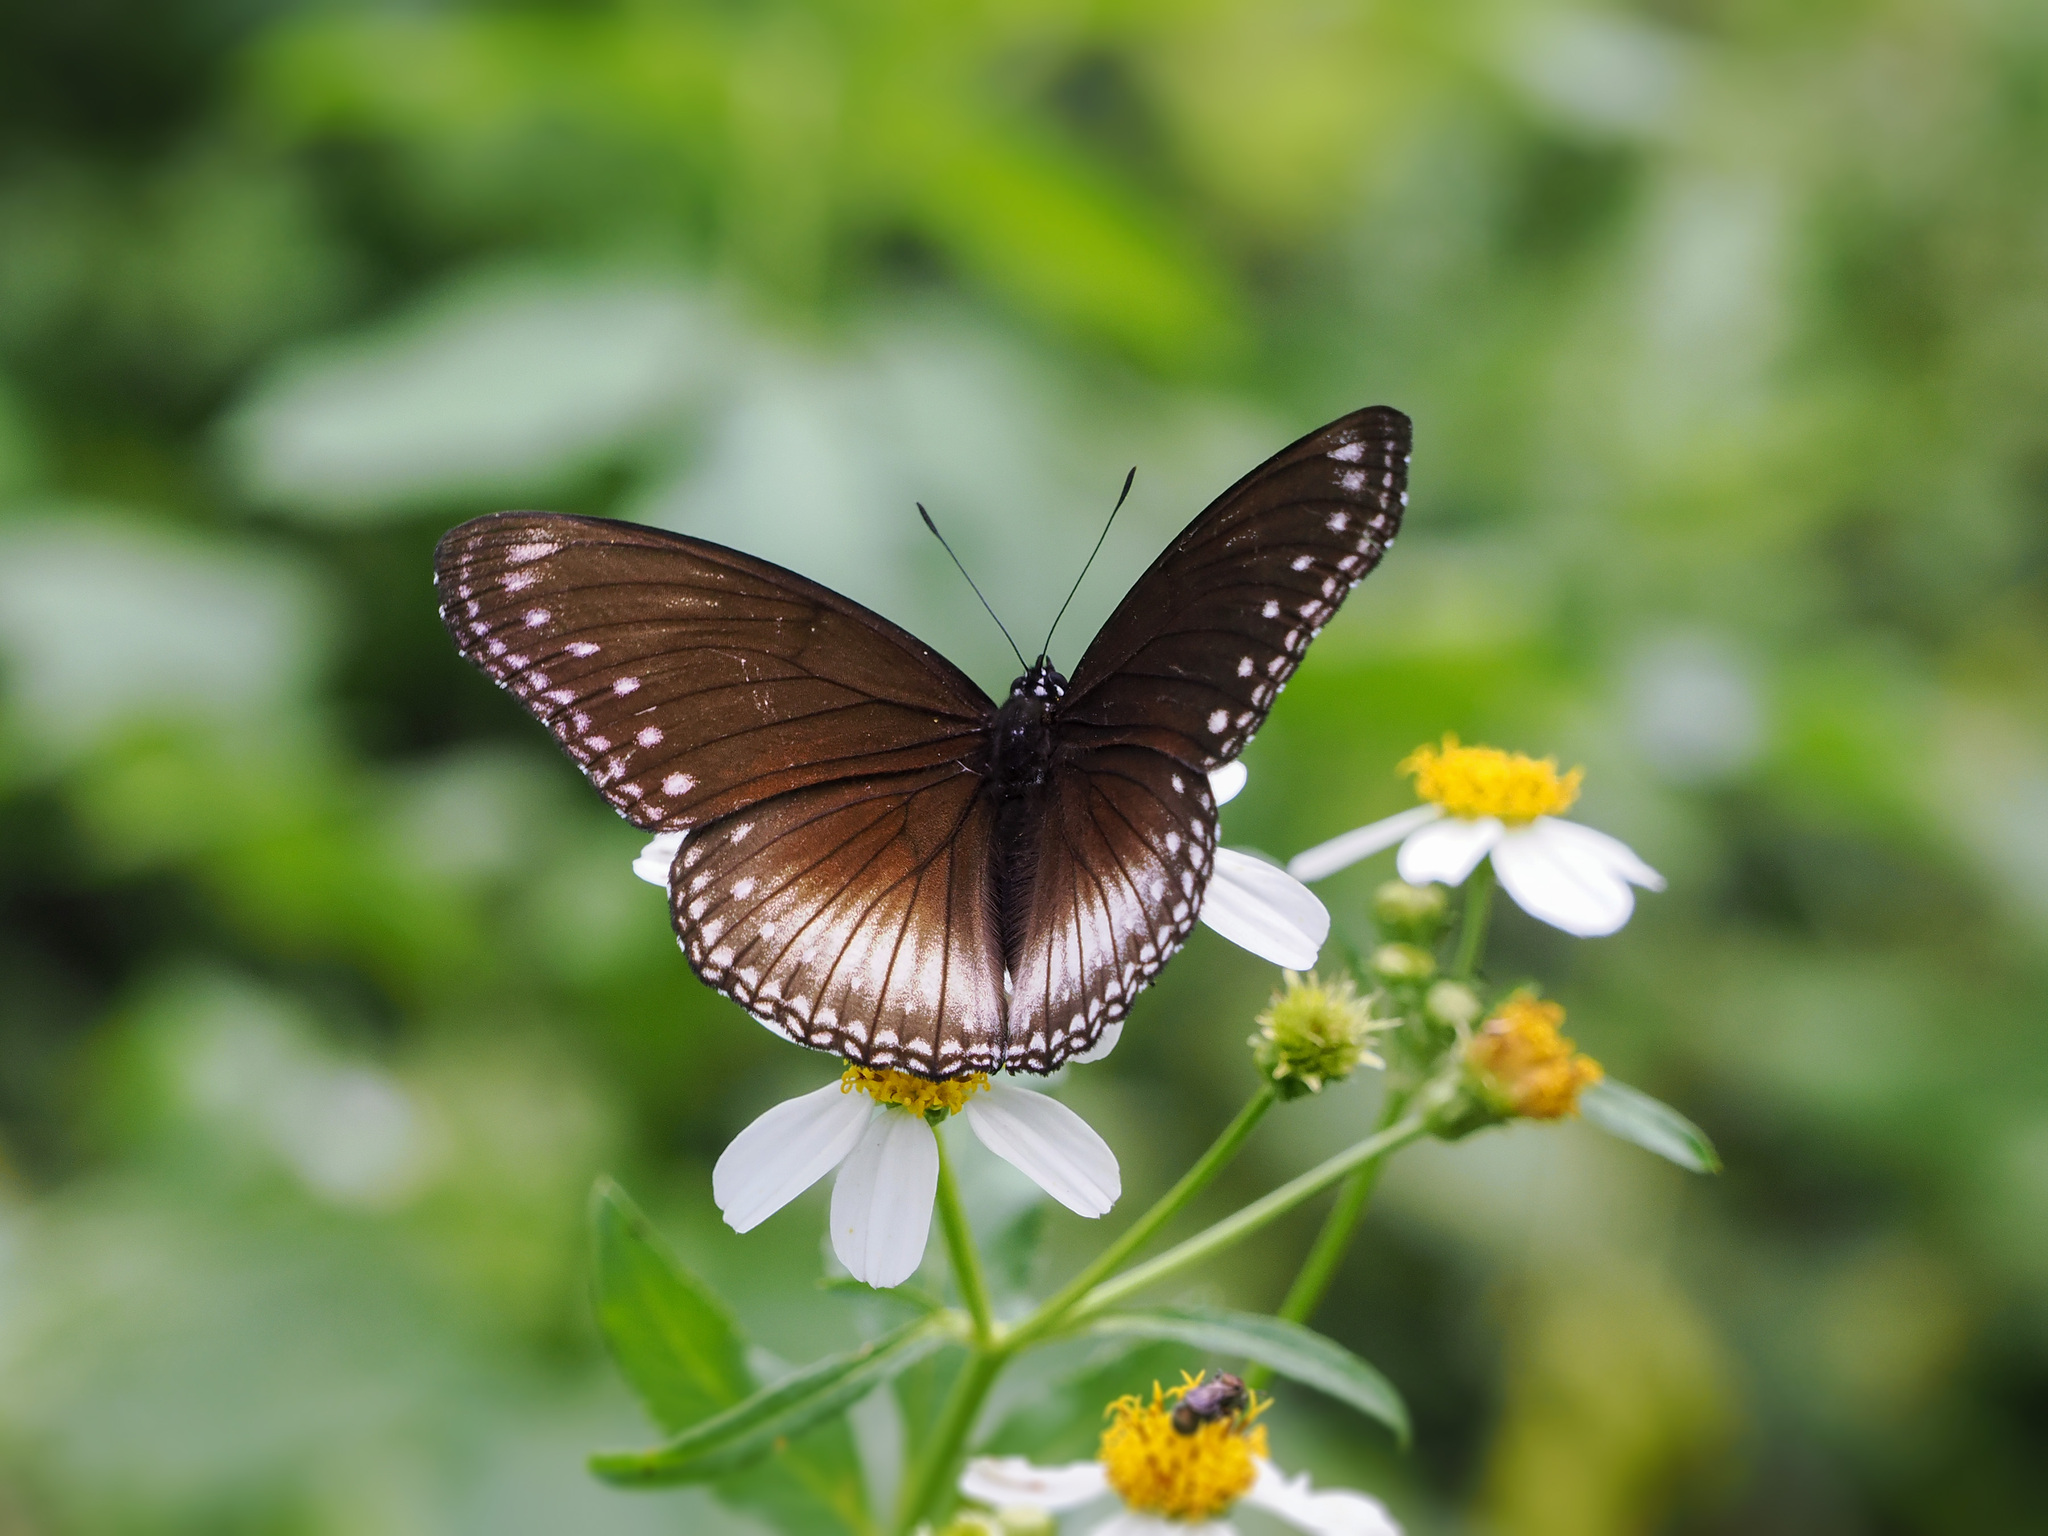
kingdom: Animalia
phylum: Arthropoda
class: Insecta
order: Lepidoptera
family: Nymphalidae
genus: Hypolimnas
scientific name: Hypolimnas anomala
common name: Malayan eggfly
